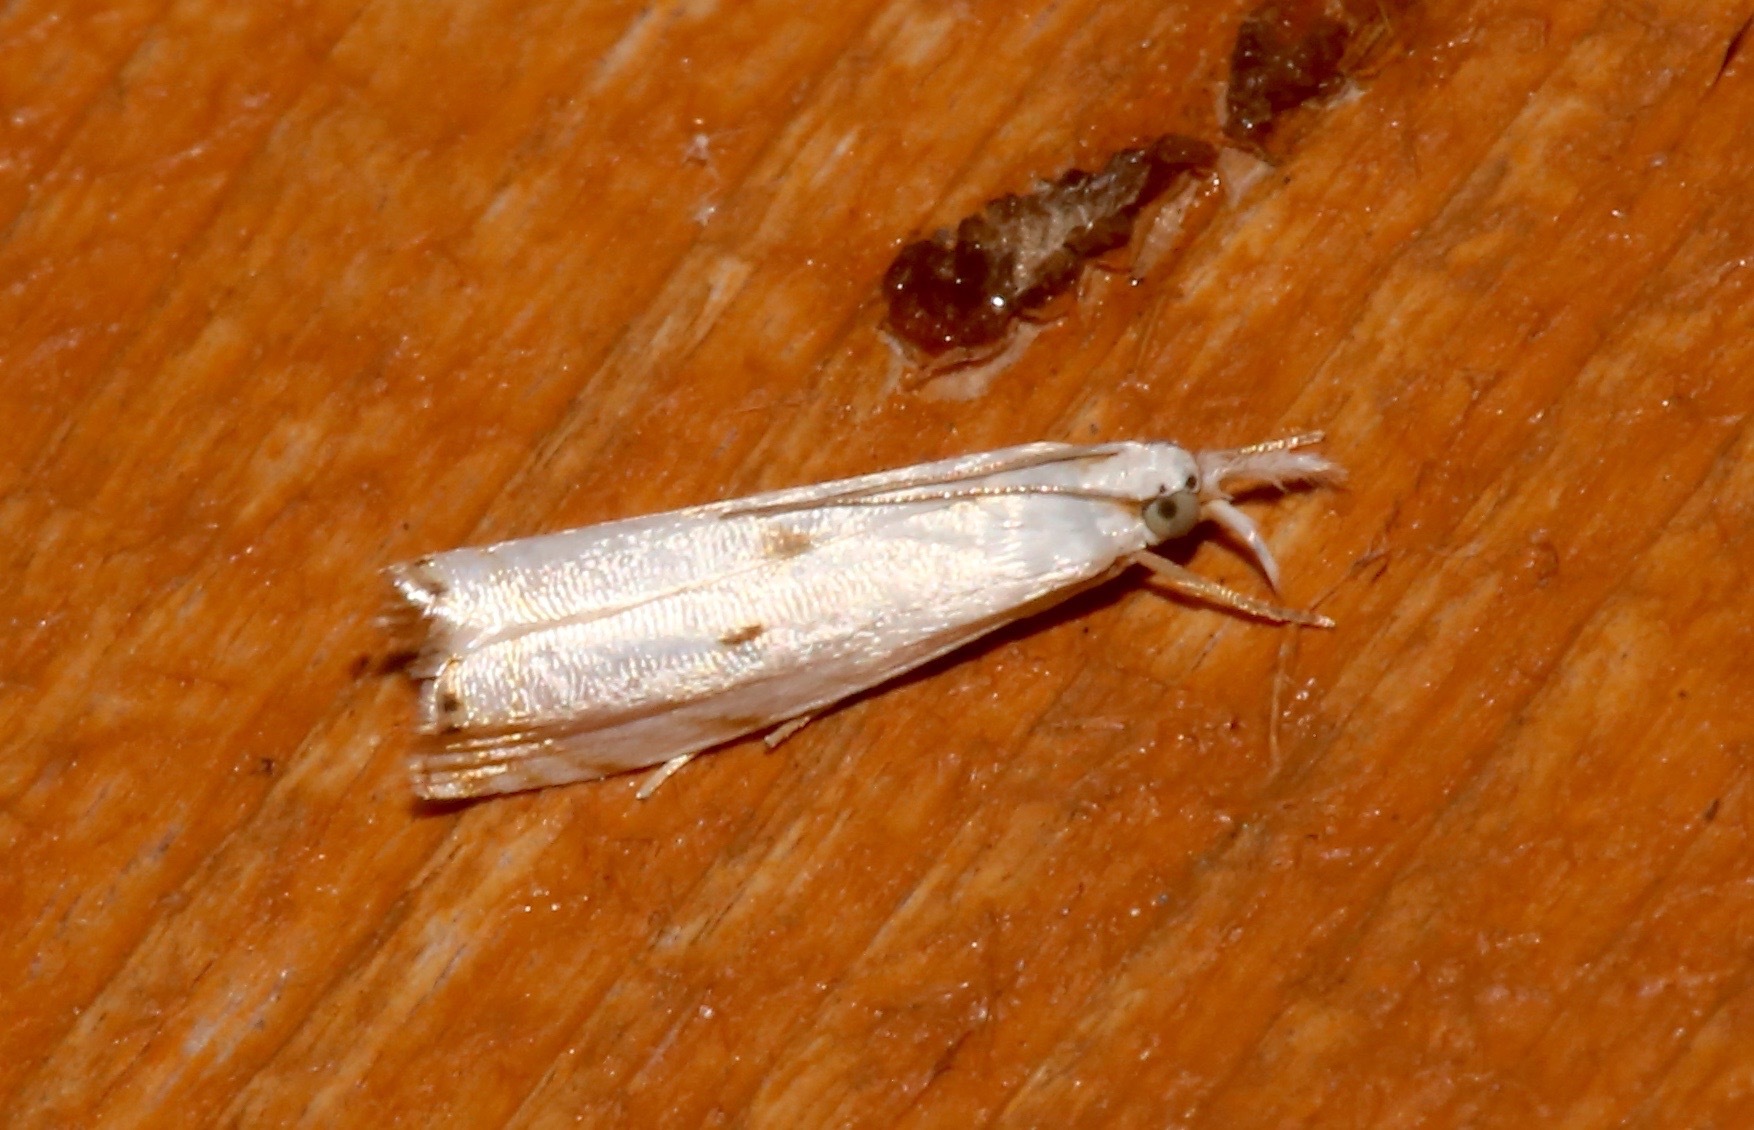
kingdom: Animalia
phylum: Arthropoda
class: Insecta
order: Lepidoptera
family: Crambidae
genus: Microcrambus
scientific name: Microcrambus biguttellus
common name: Gold-stripe grass-veneer moth
